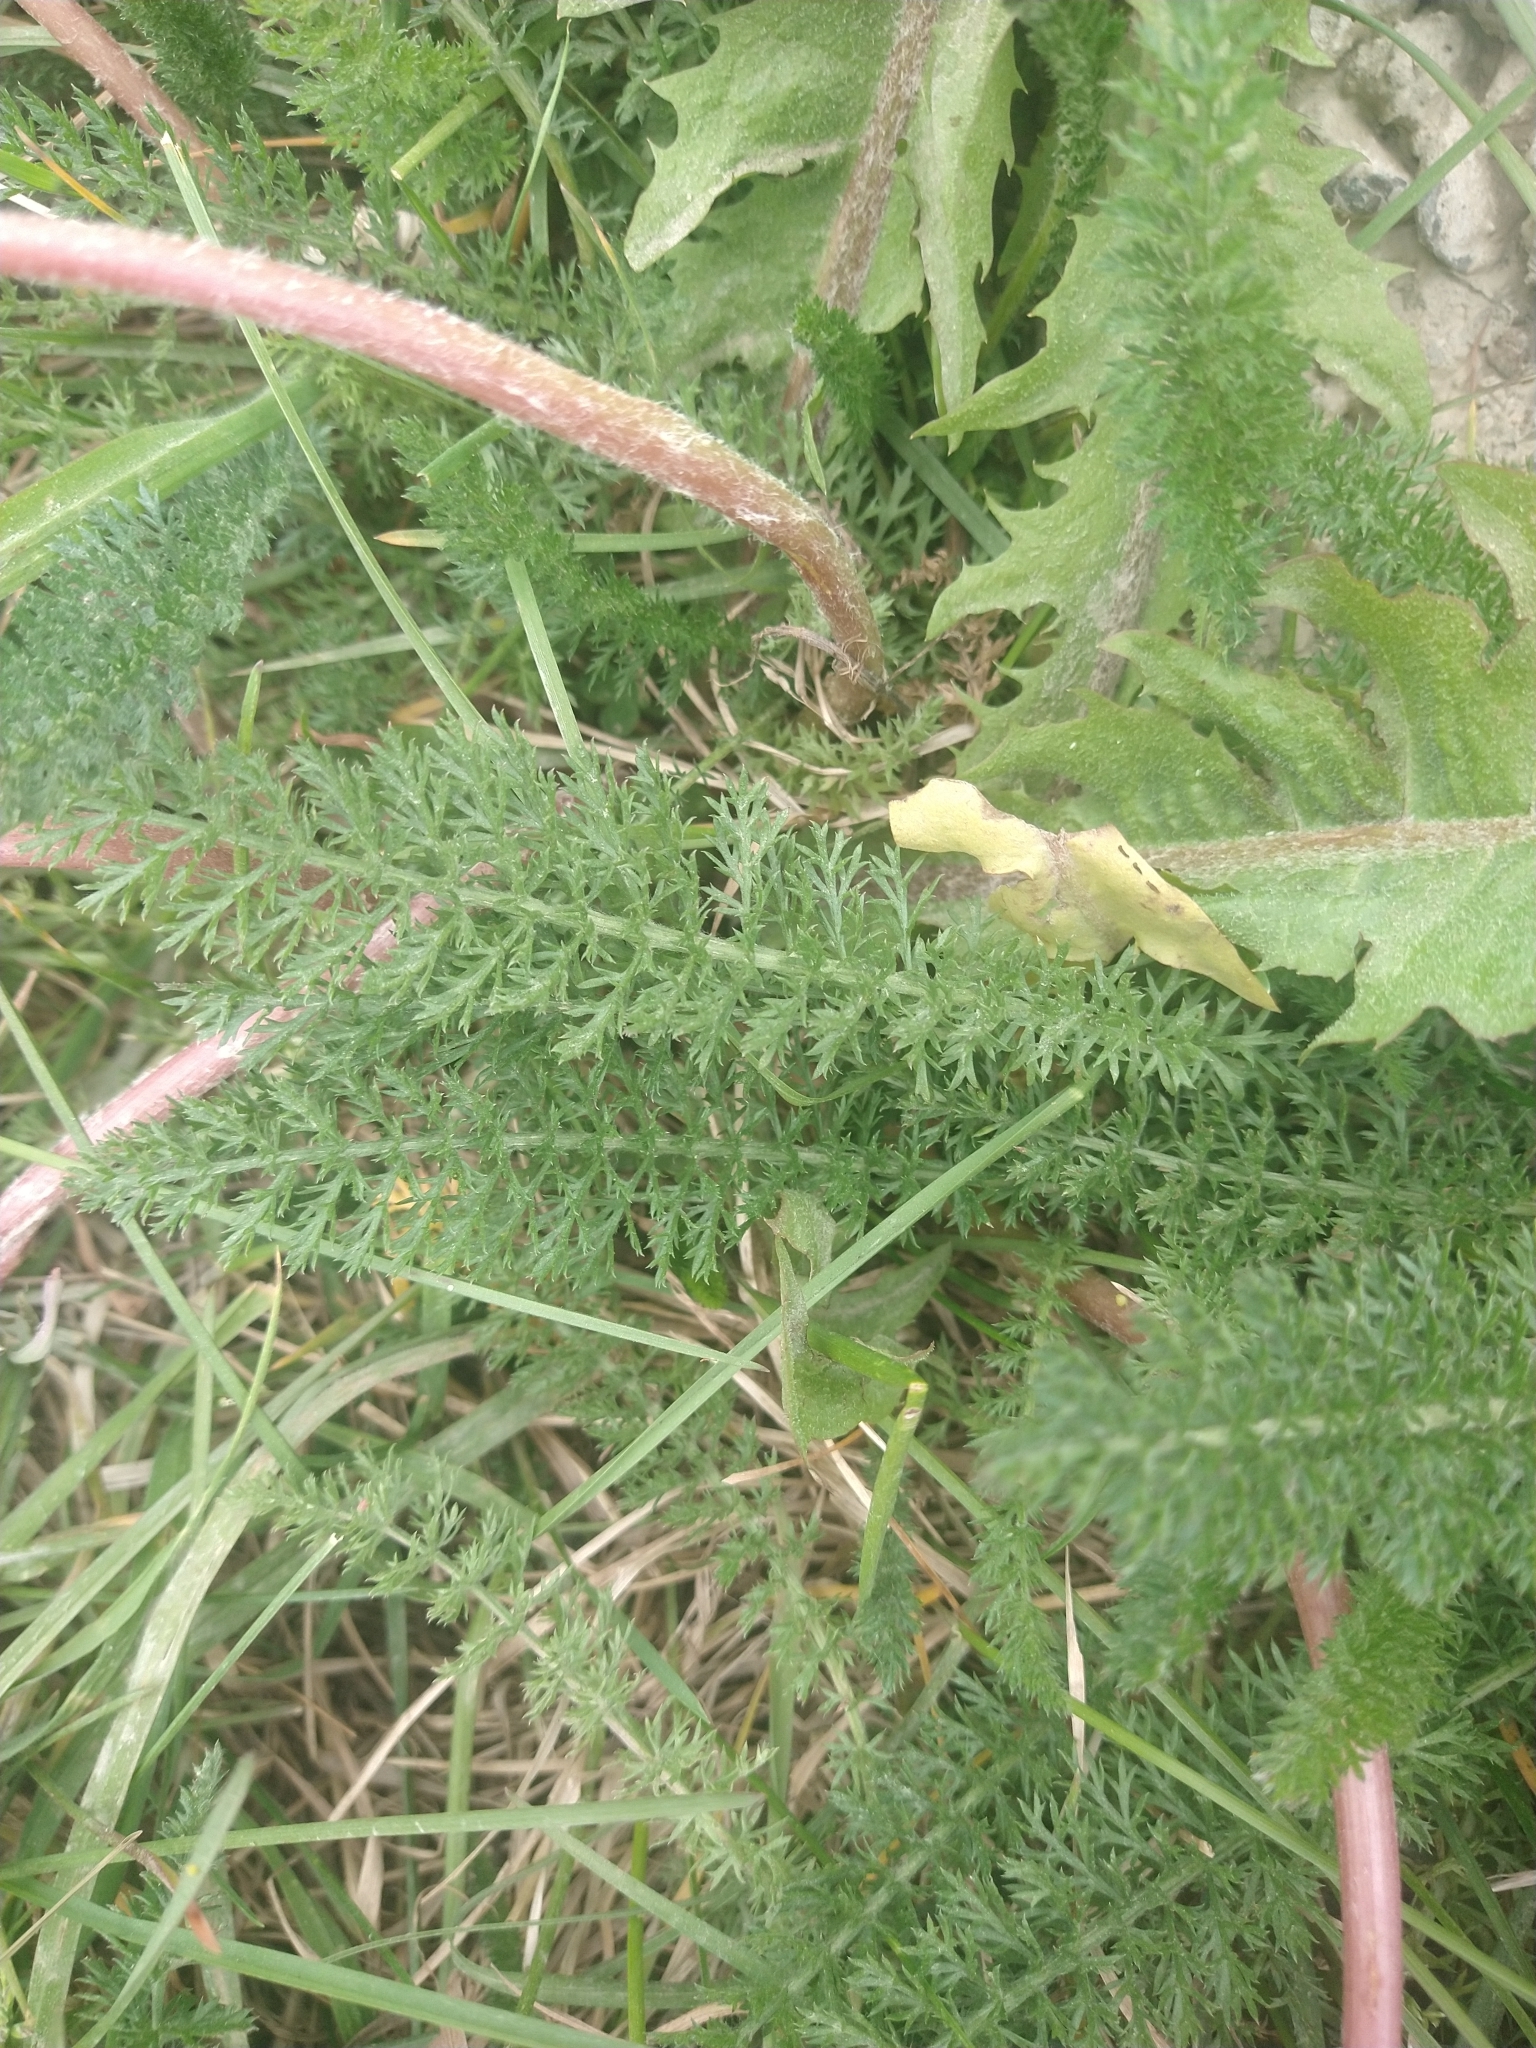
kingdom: Plantae
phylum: Tracheophyta
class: Magnoliopsida
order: Asterales
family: Asteraceae
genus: Achillea
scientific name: Achillea millefolium
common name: Yarrow
